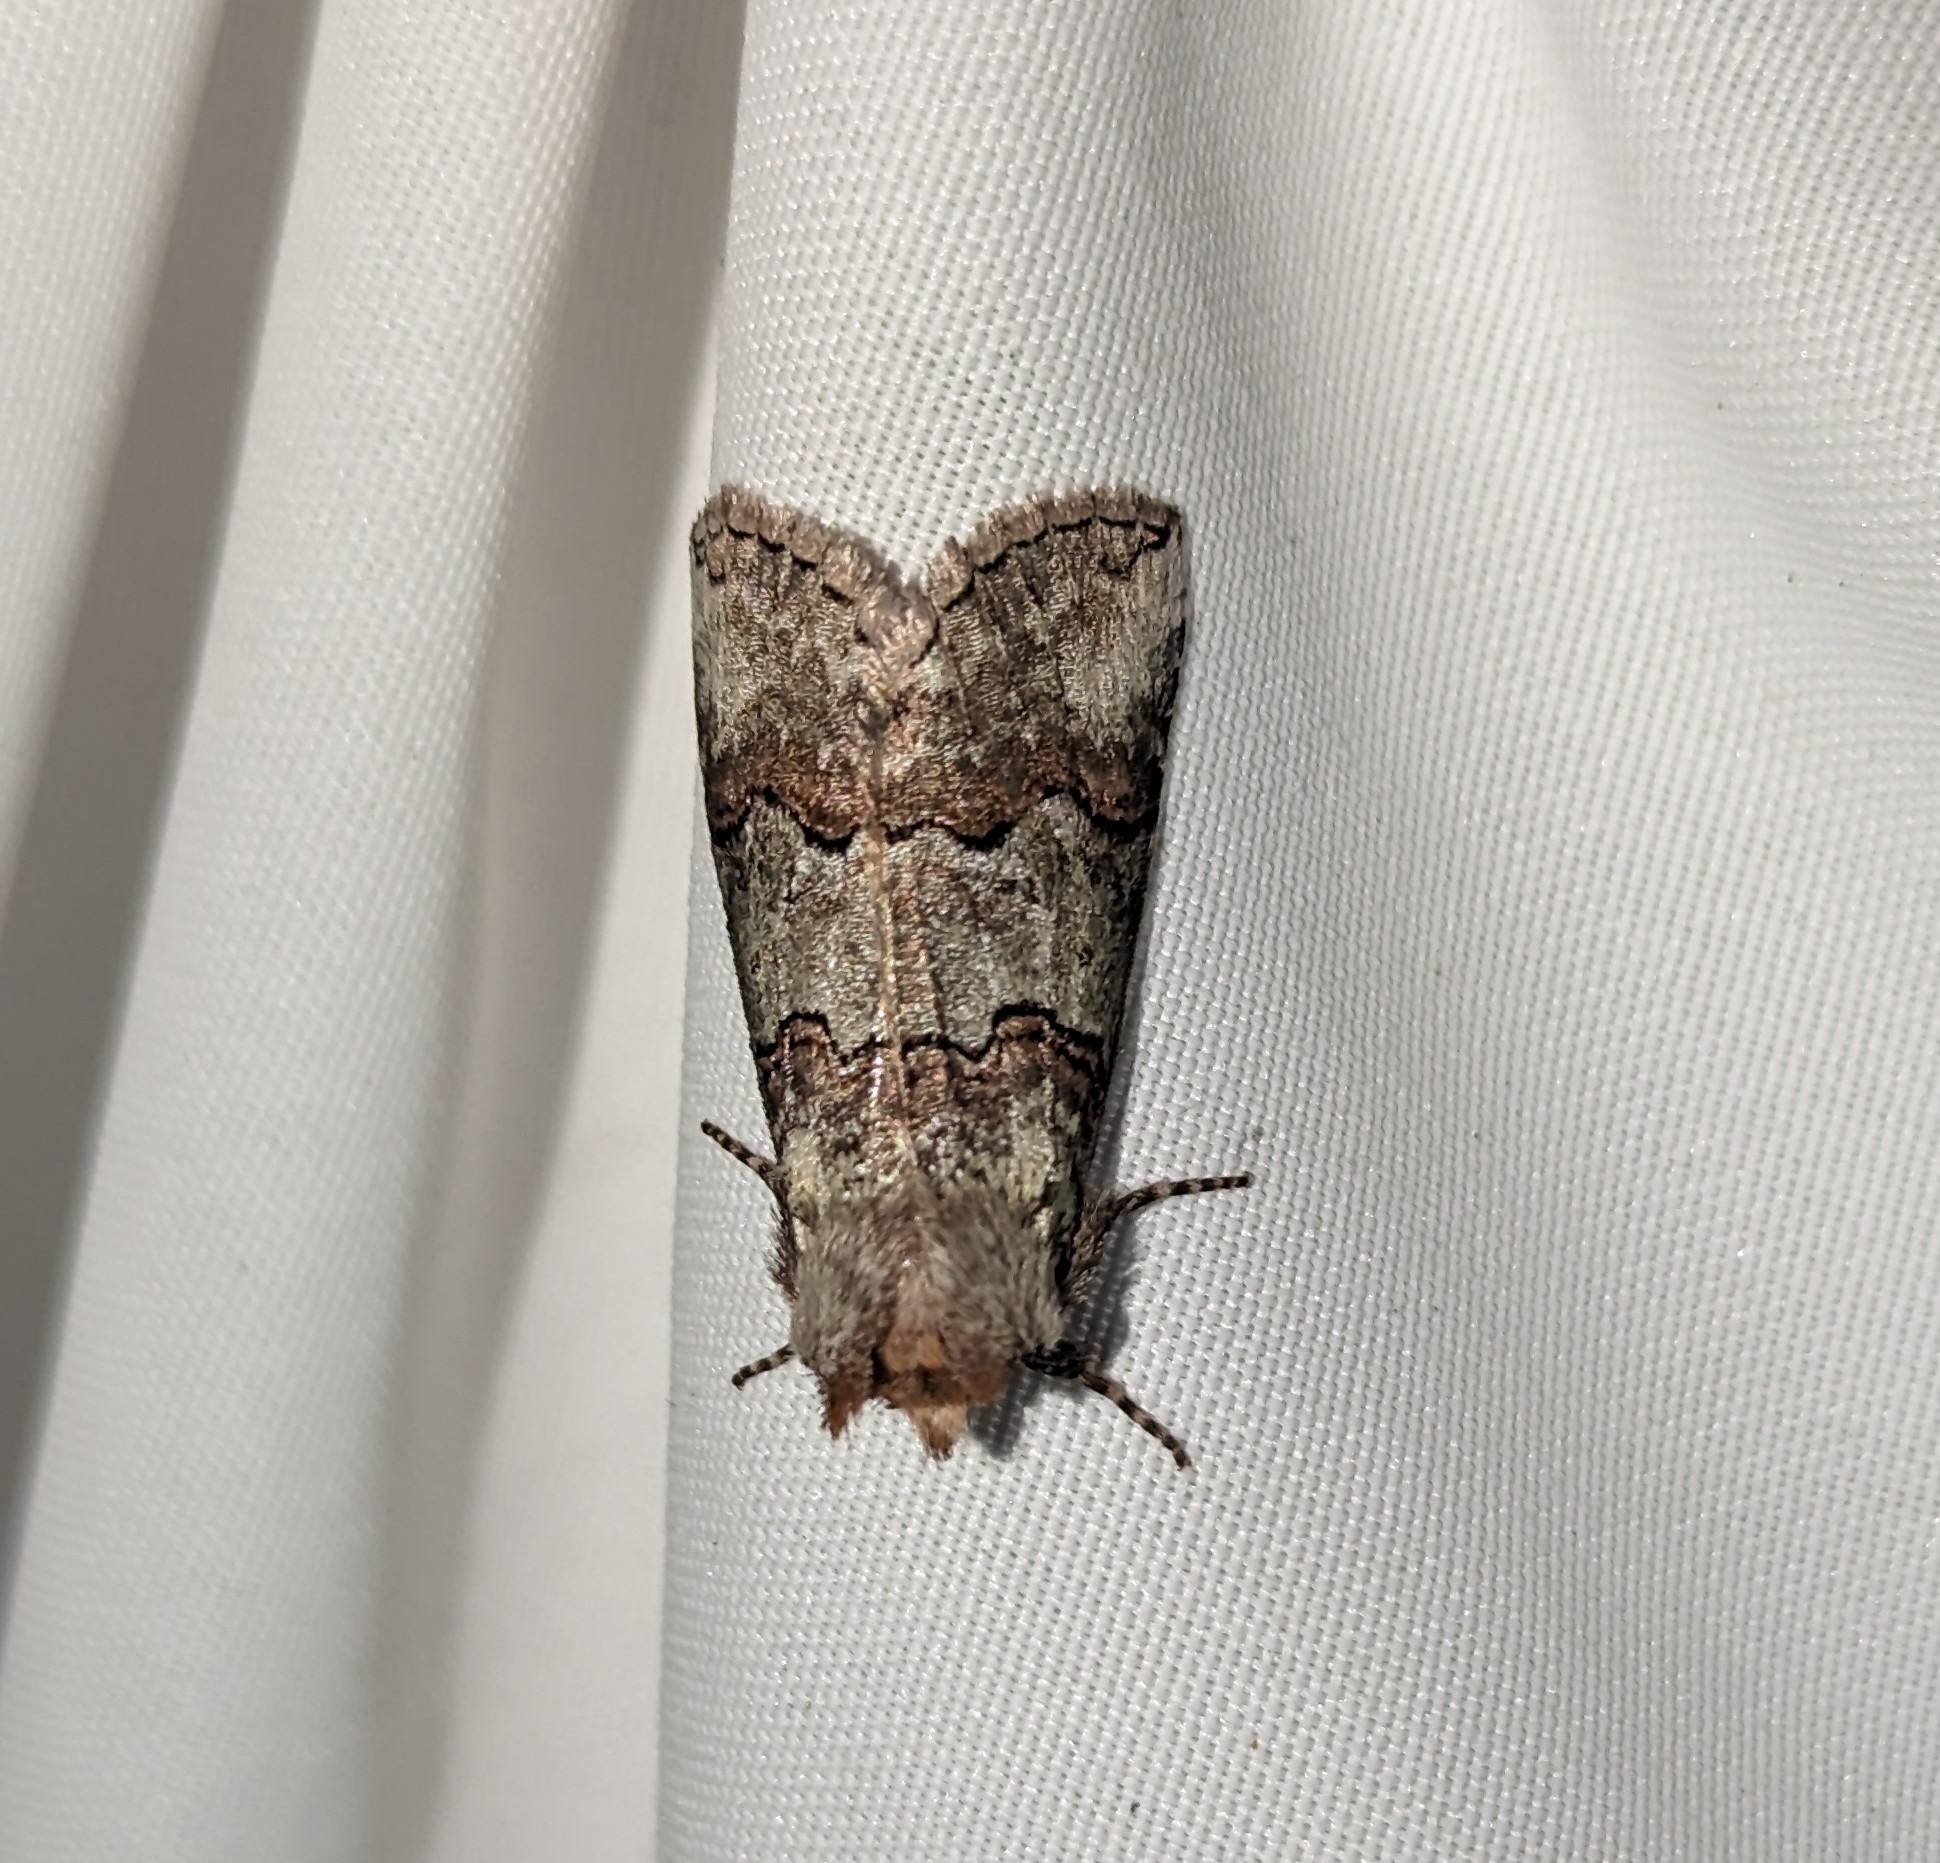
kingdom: Animalia
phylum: Arthropoda
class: Insecta
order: Lepidoptera
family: Drepanidae
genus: Ceranemota
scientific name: Ceranemota fasciata
